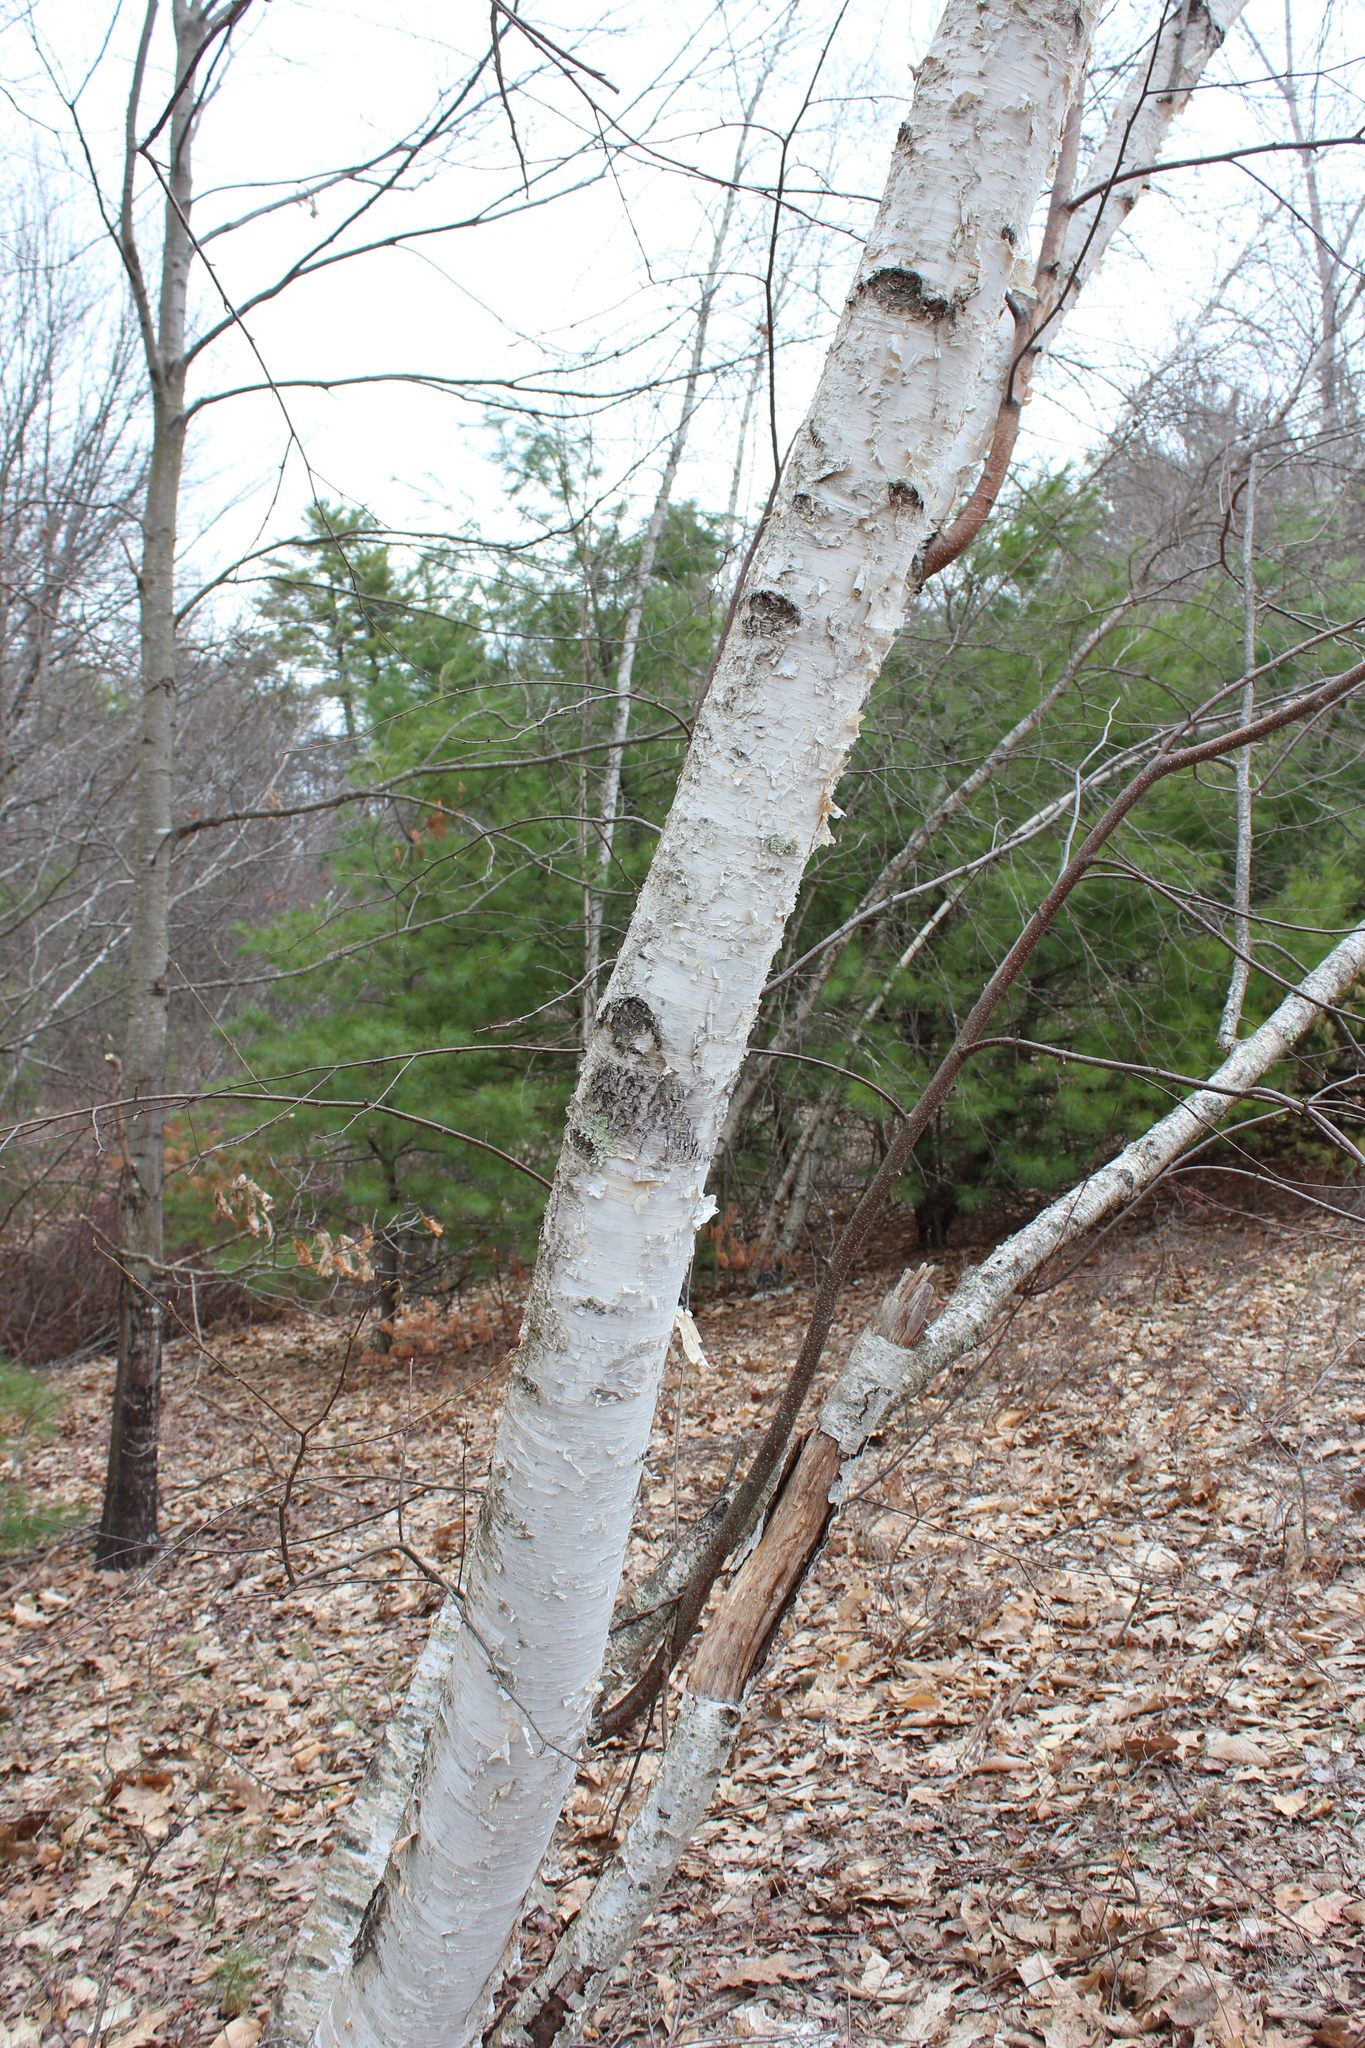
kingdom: Plantae
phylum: Tracheophyta
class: Magnoliopsida
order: Fagales
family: Betulaceae
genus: Betula
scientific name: Betula papyrifera
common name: Paper birch
